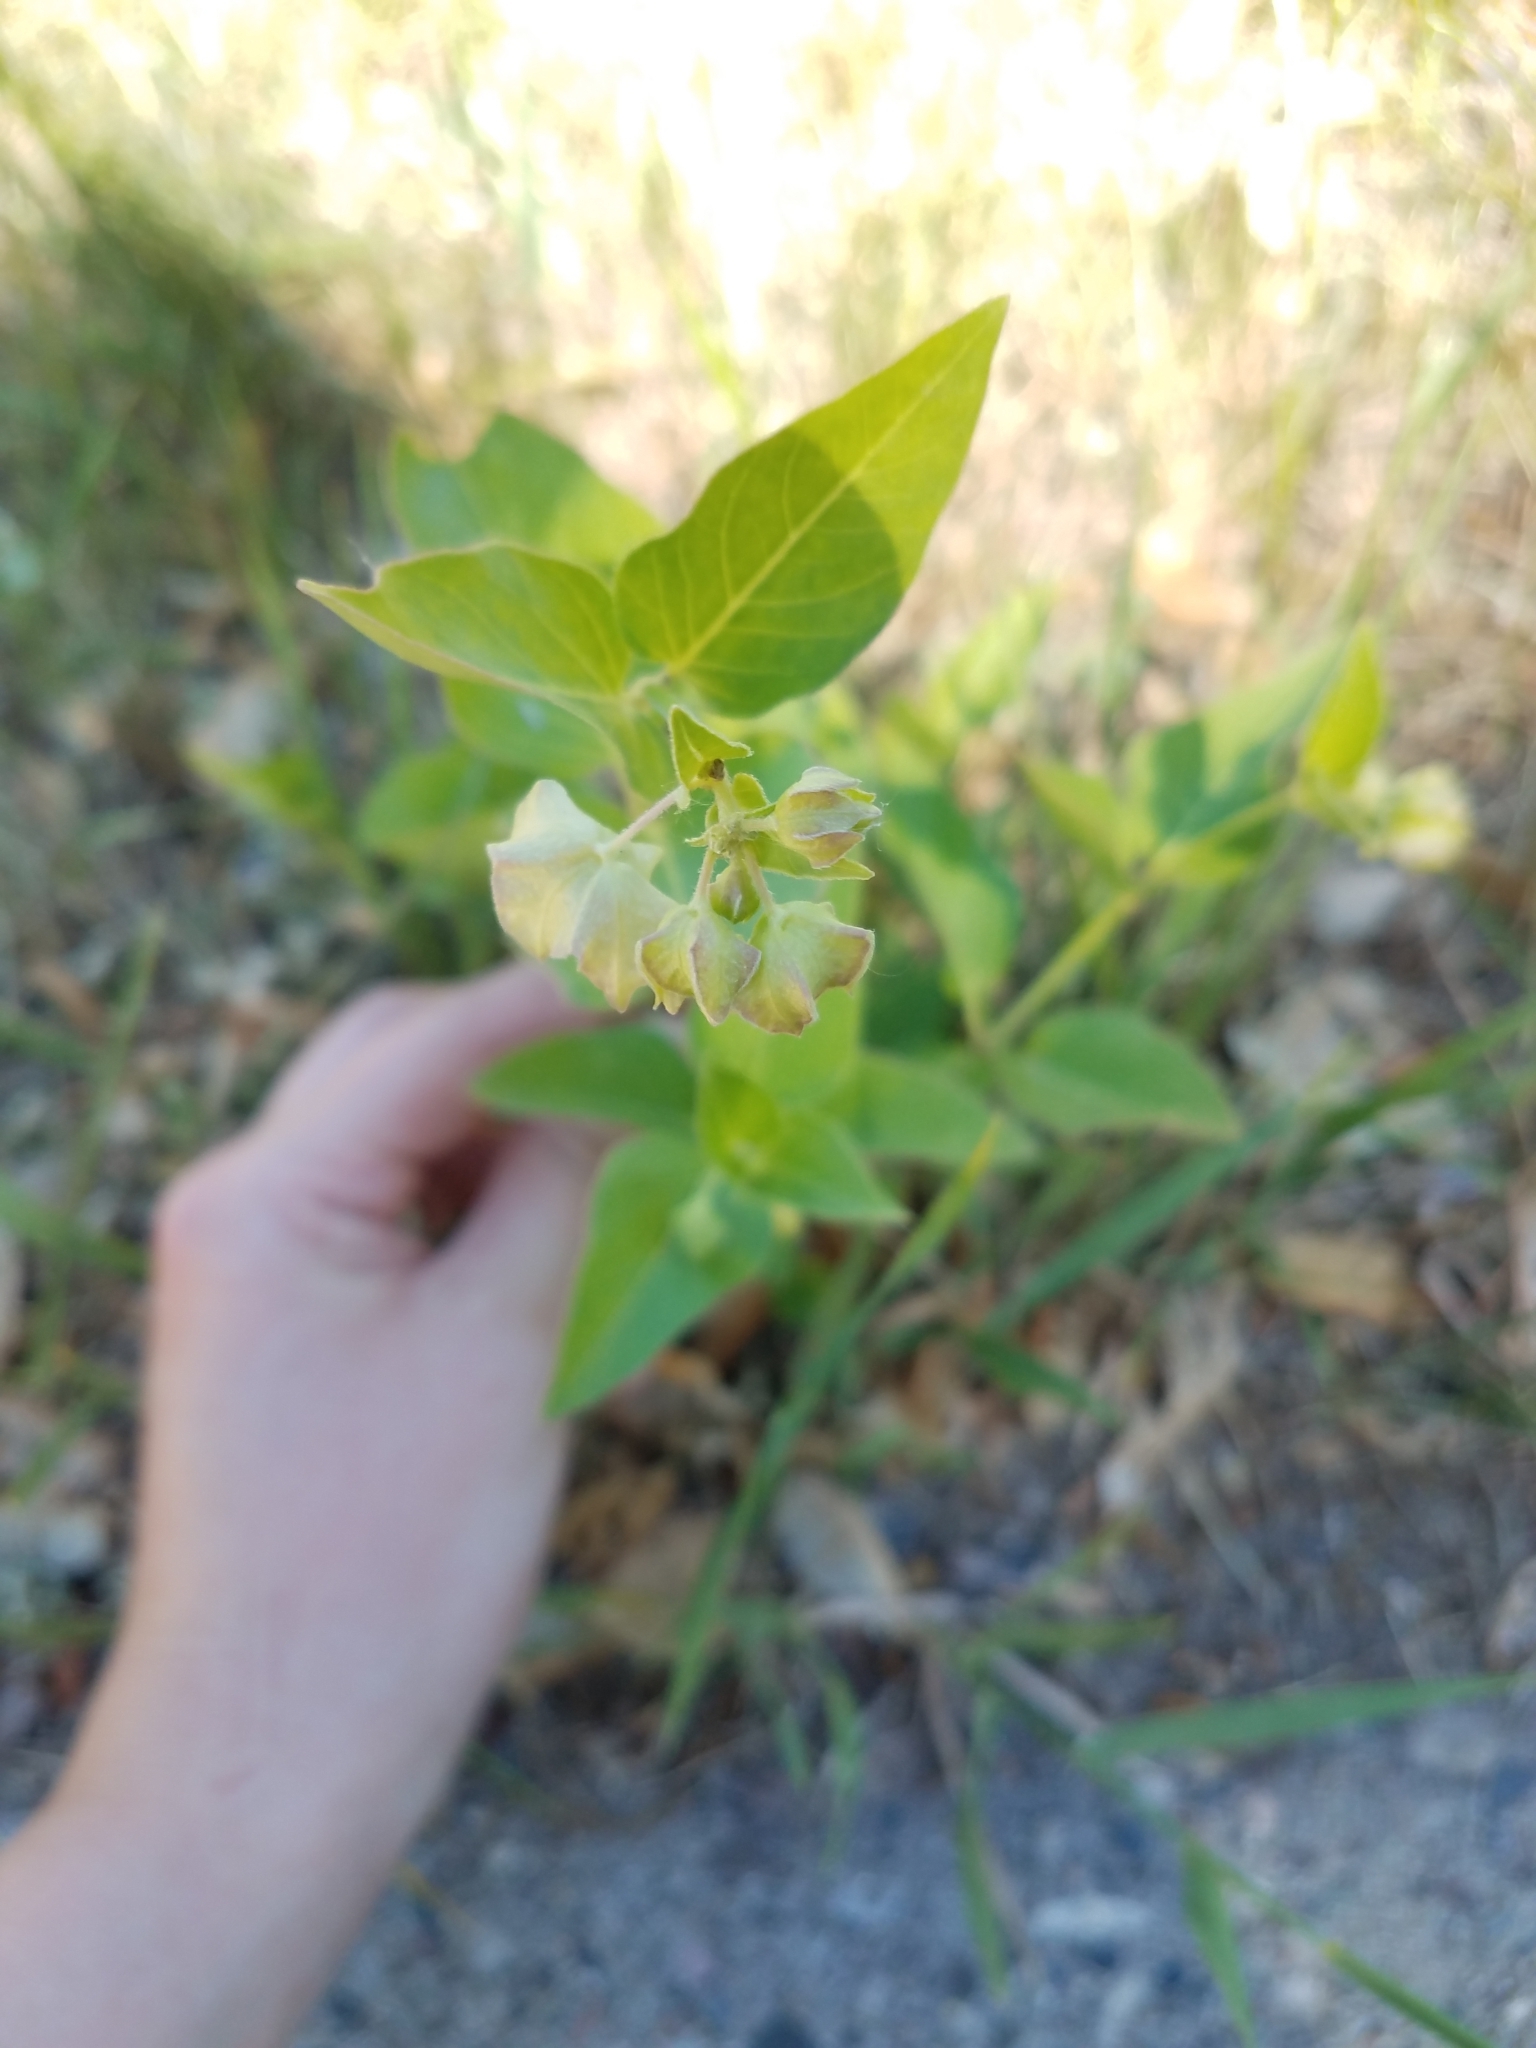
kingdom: Plantae
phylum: Tracheophyta
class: Magnoliopsida
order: Caryophyllales
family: Nyctaginaceae
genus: Mirabilis
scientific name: Mirabilis nyctaginea
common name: Umbrella wort
